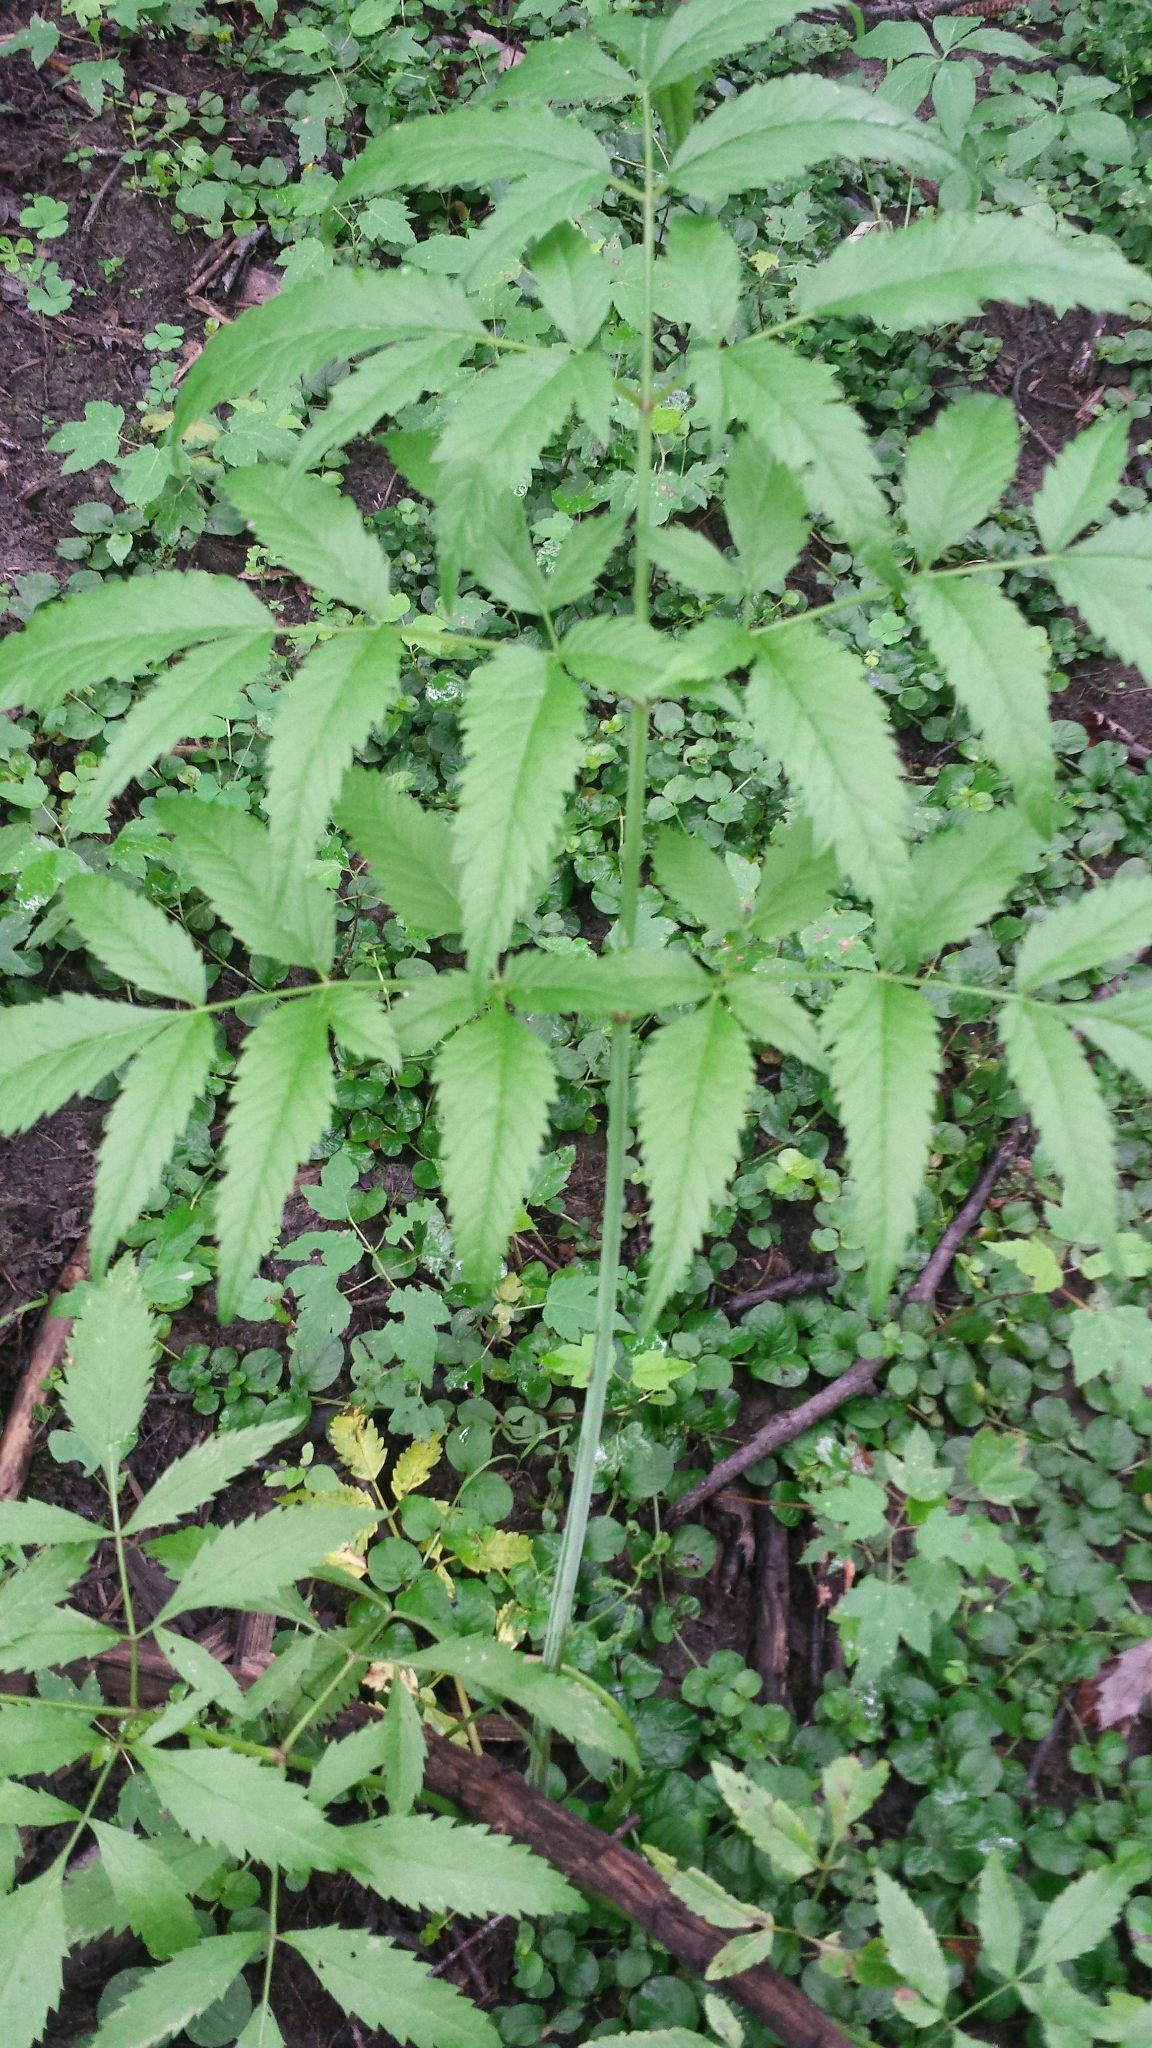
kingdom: Plantae
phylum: Tracheophyta
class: Magnoliopsida
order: Apiales
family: Apiaceae
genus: Cicuta
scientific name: Cicuta maculata
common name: Spotted cowbane
